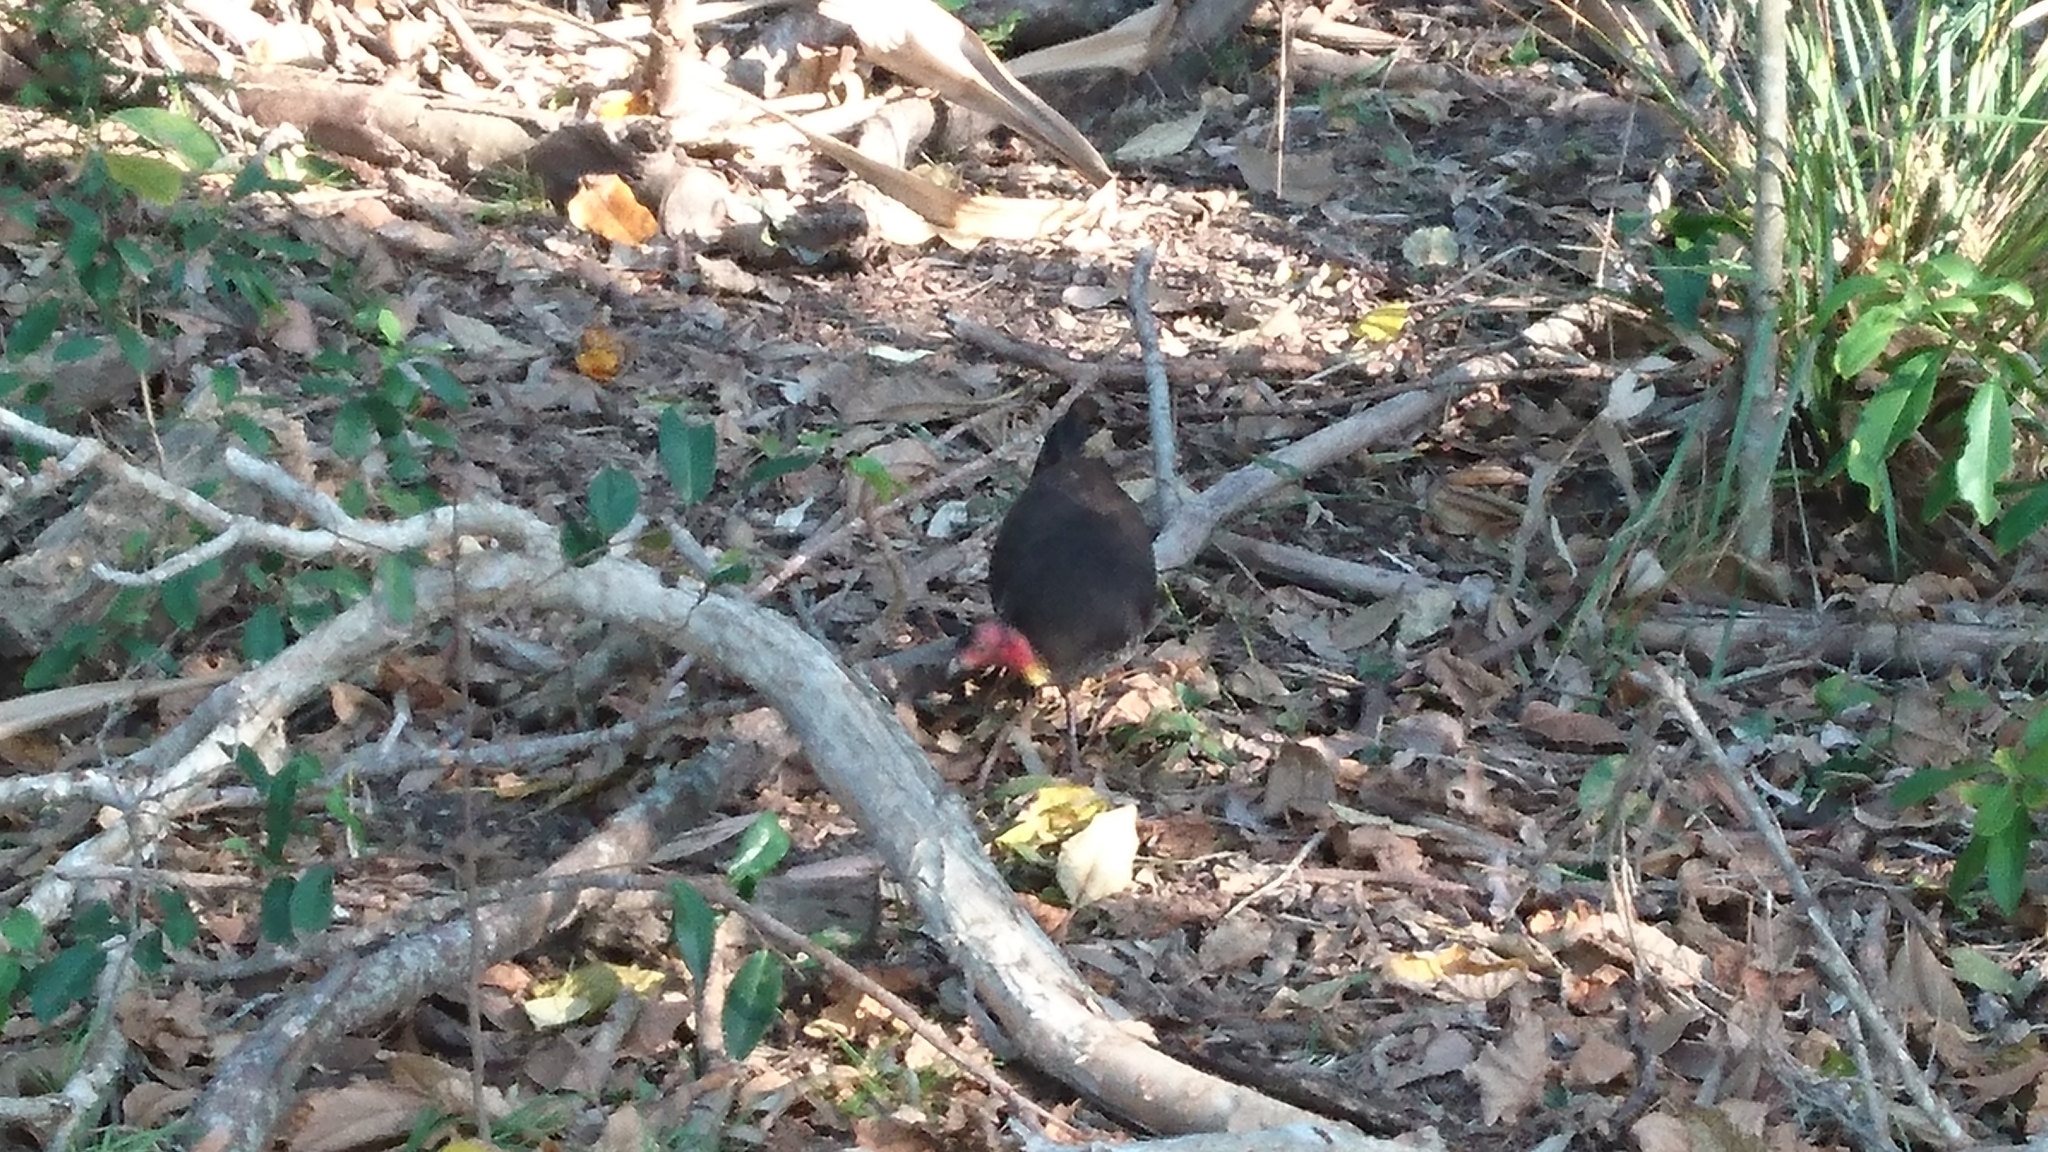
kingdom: Animalia
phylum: Chordata
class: Aves
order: Galliformes
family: Megapodiidae
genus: Alectura
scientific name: Alectura lathami
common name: Australian brushturkey
